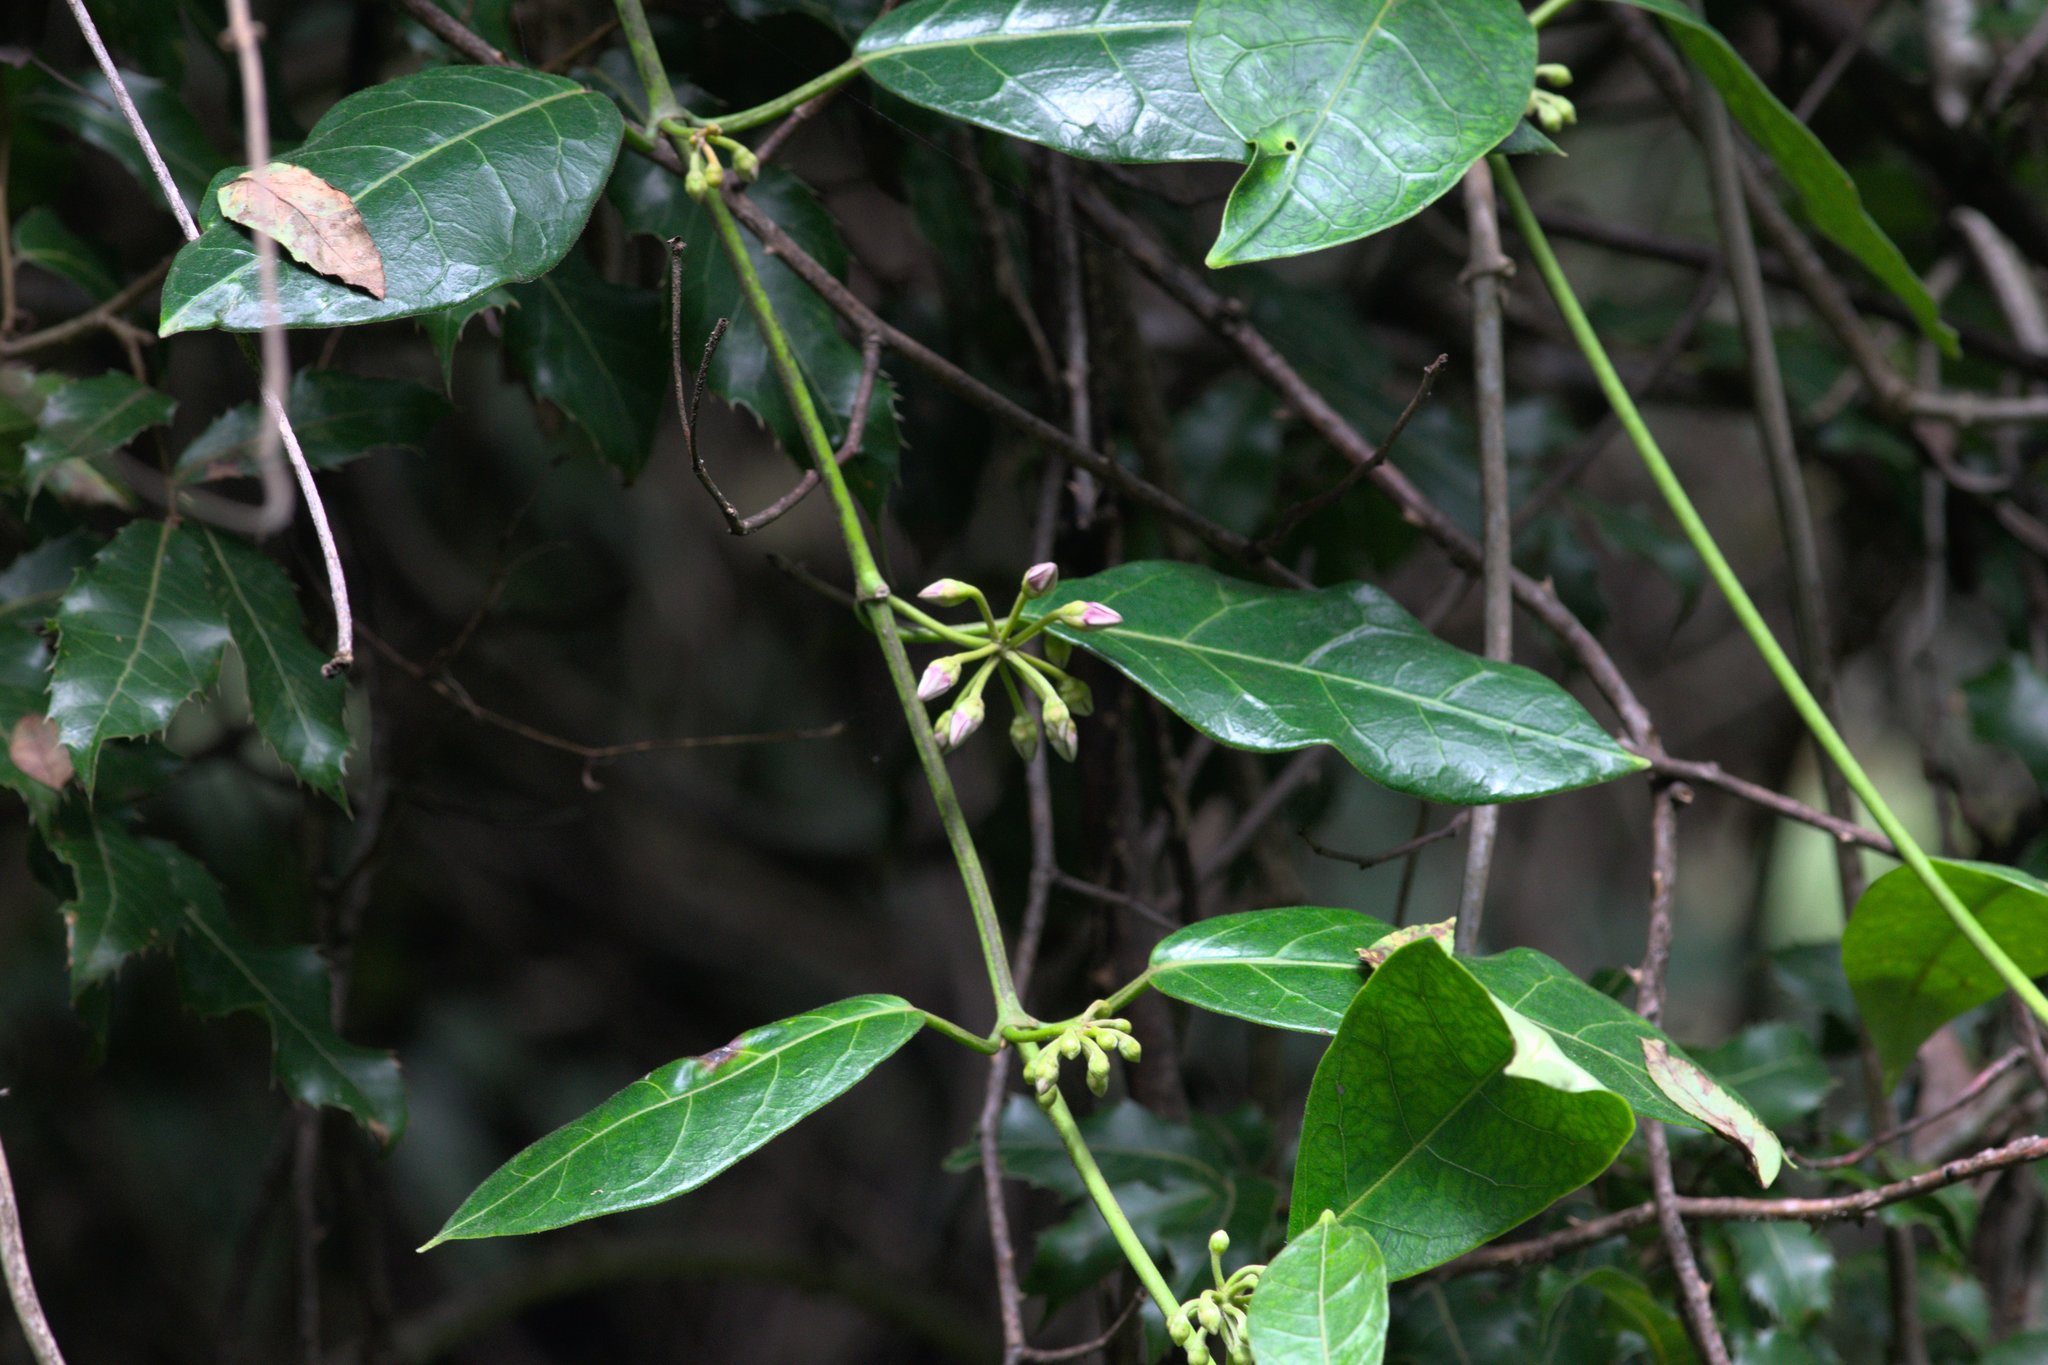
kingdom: Plantae
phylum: Tracheophyta
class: Magnoliopsida
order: Gentianales
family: Apocynaceae
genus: Sinomarsdenia
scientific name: Sinomarsdenia
